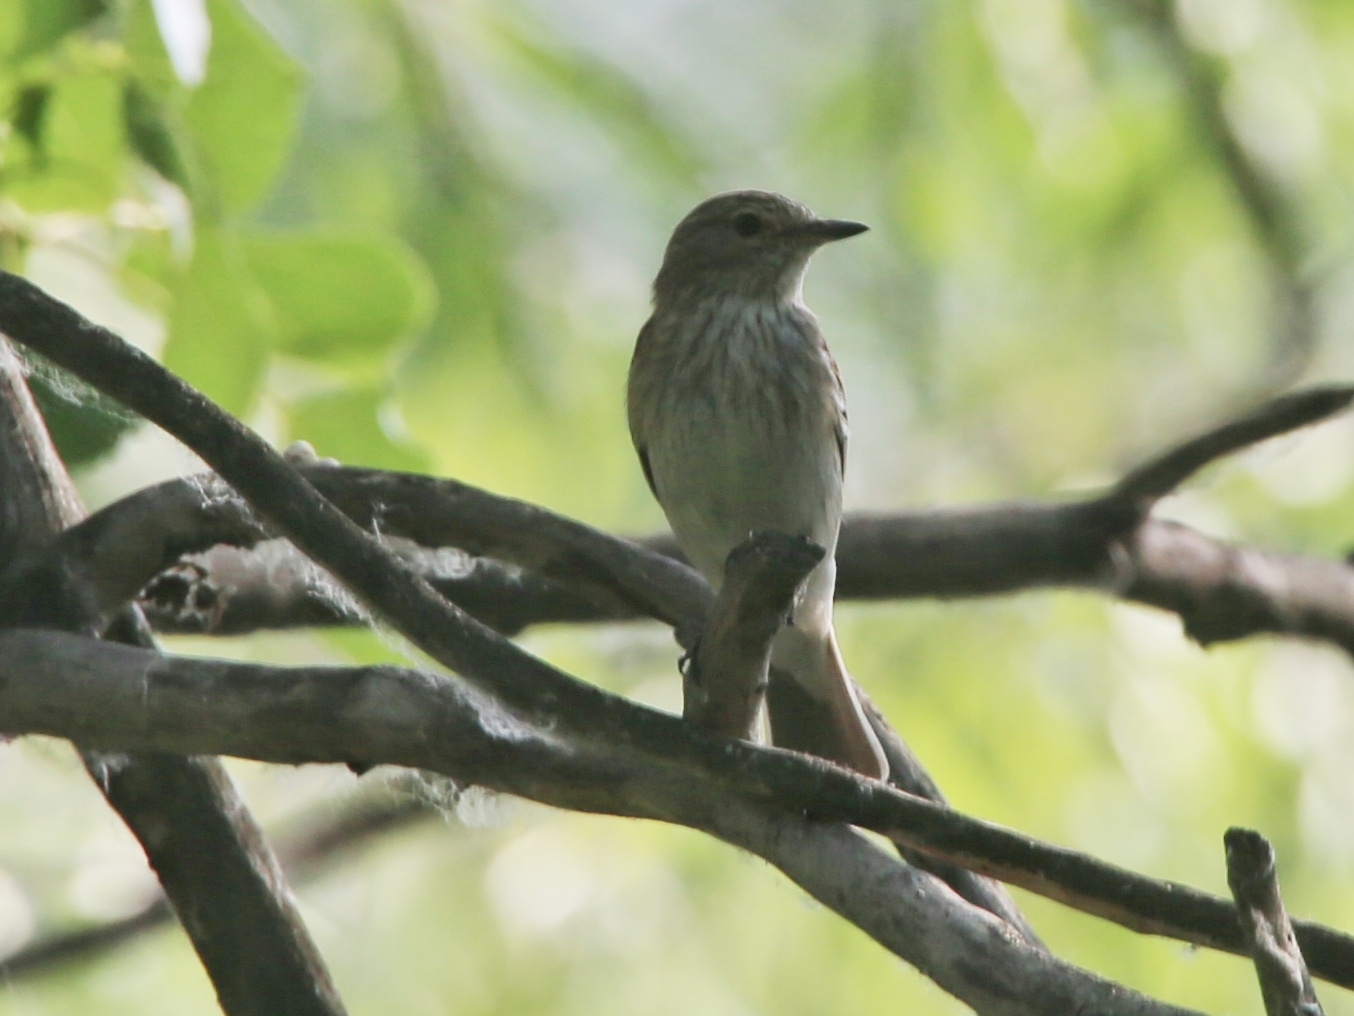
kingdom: Animalia
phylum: Chordata
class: Aves
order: Passeriformes
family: Muscicapidae
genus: Muscicapa
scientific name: Muscicapa striata
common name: Spotted flycatcher
